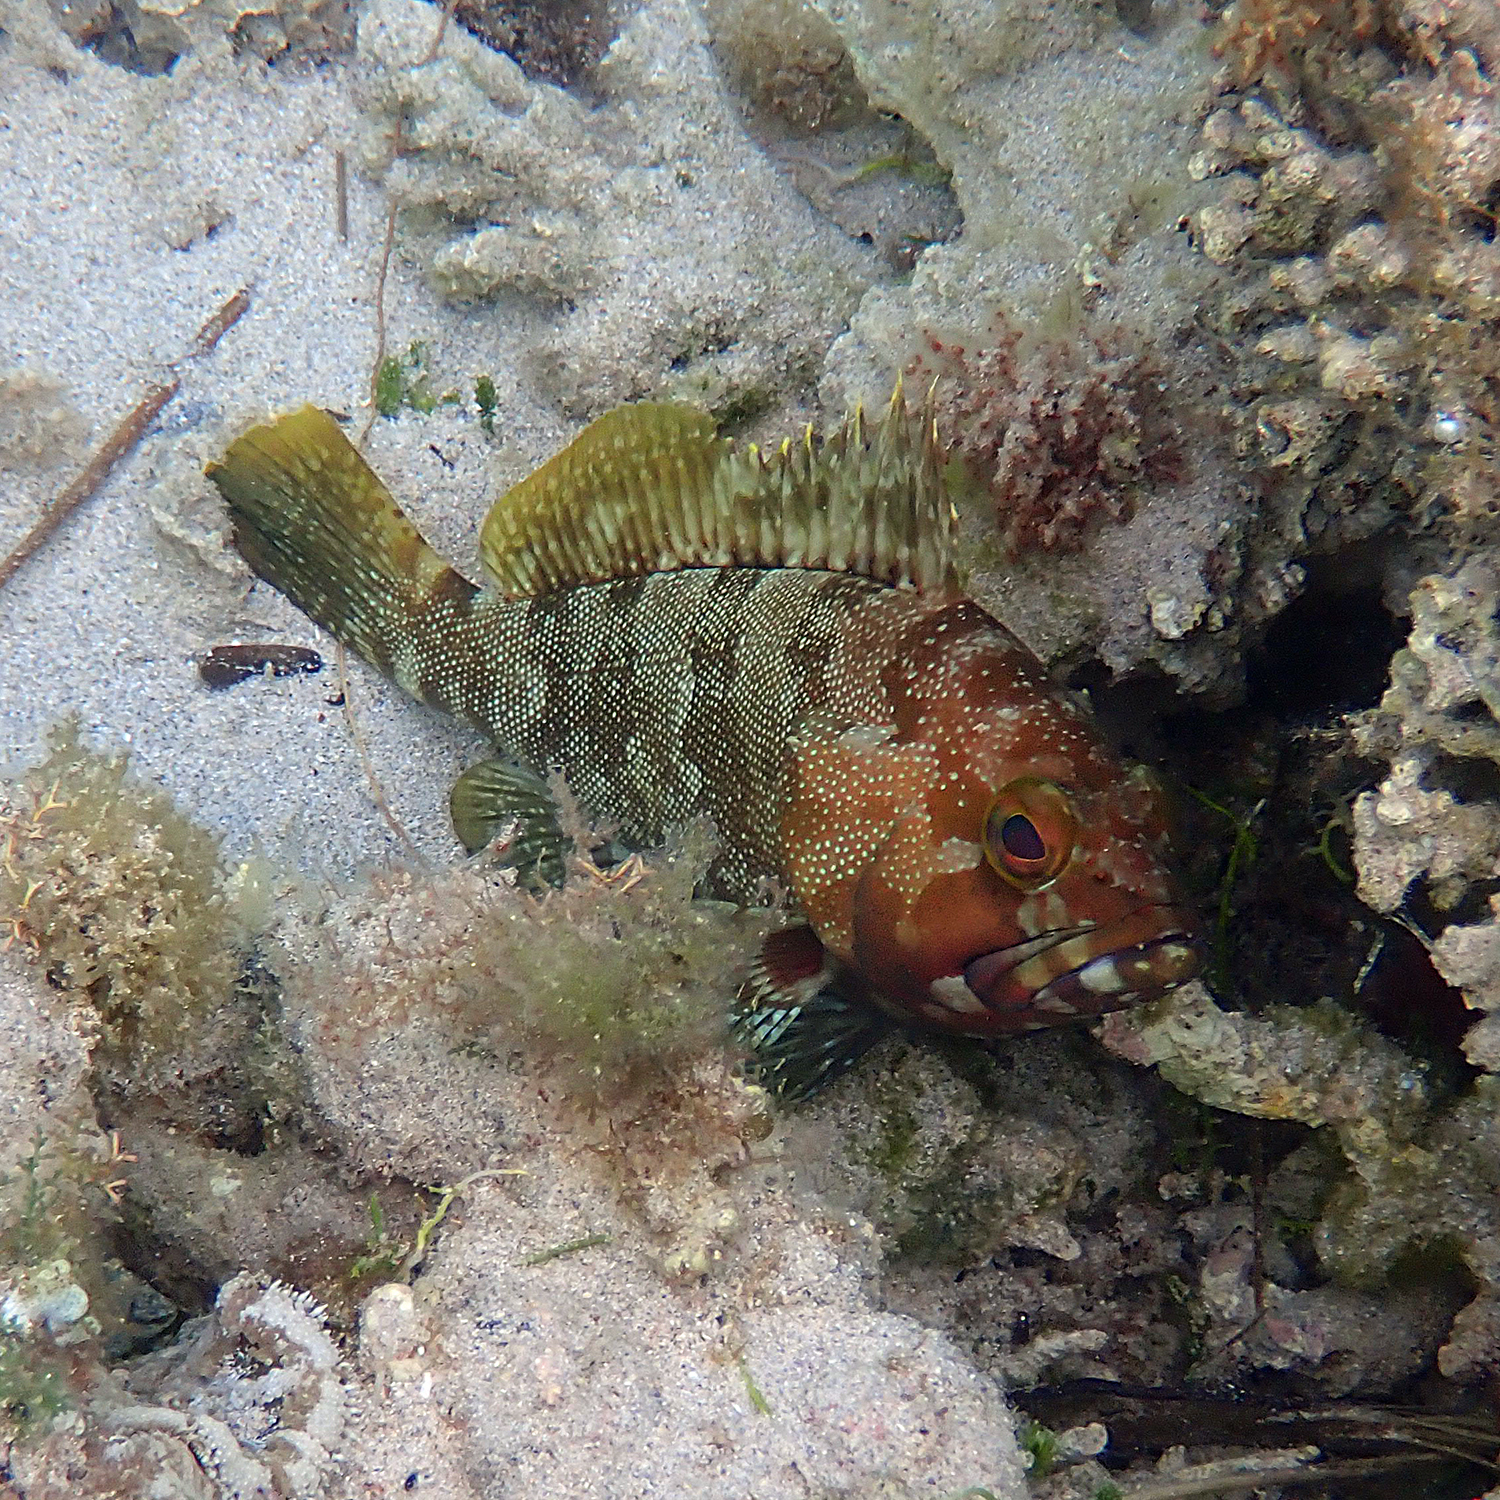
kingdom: Animalia
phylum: Chordata
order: Perciformes
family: Serranidae
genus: Epinephelus
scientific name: Epinephelus rivulatus
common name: Halfmoon grouper
